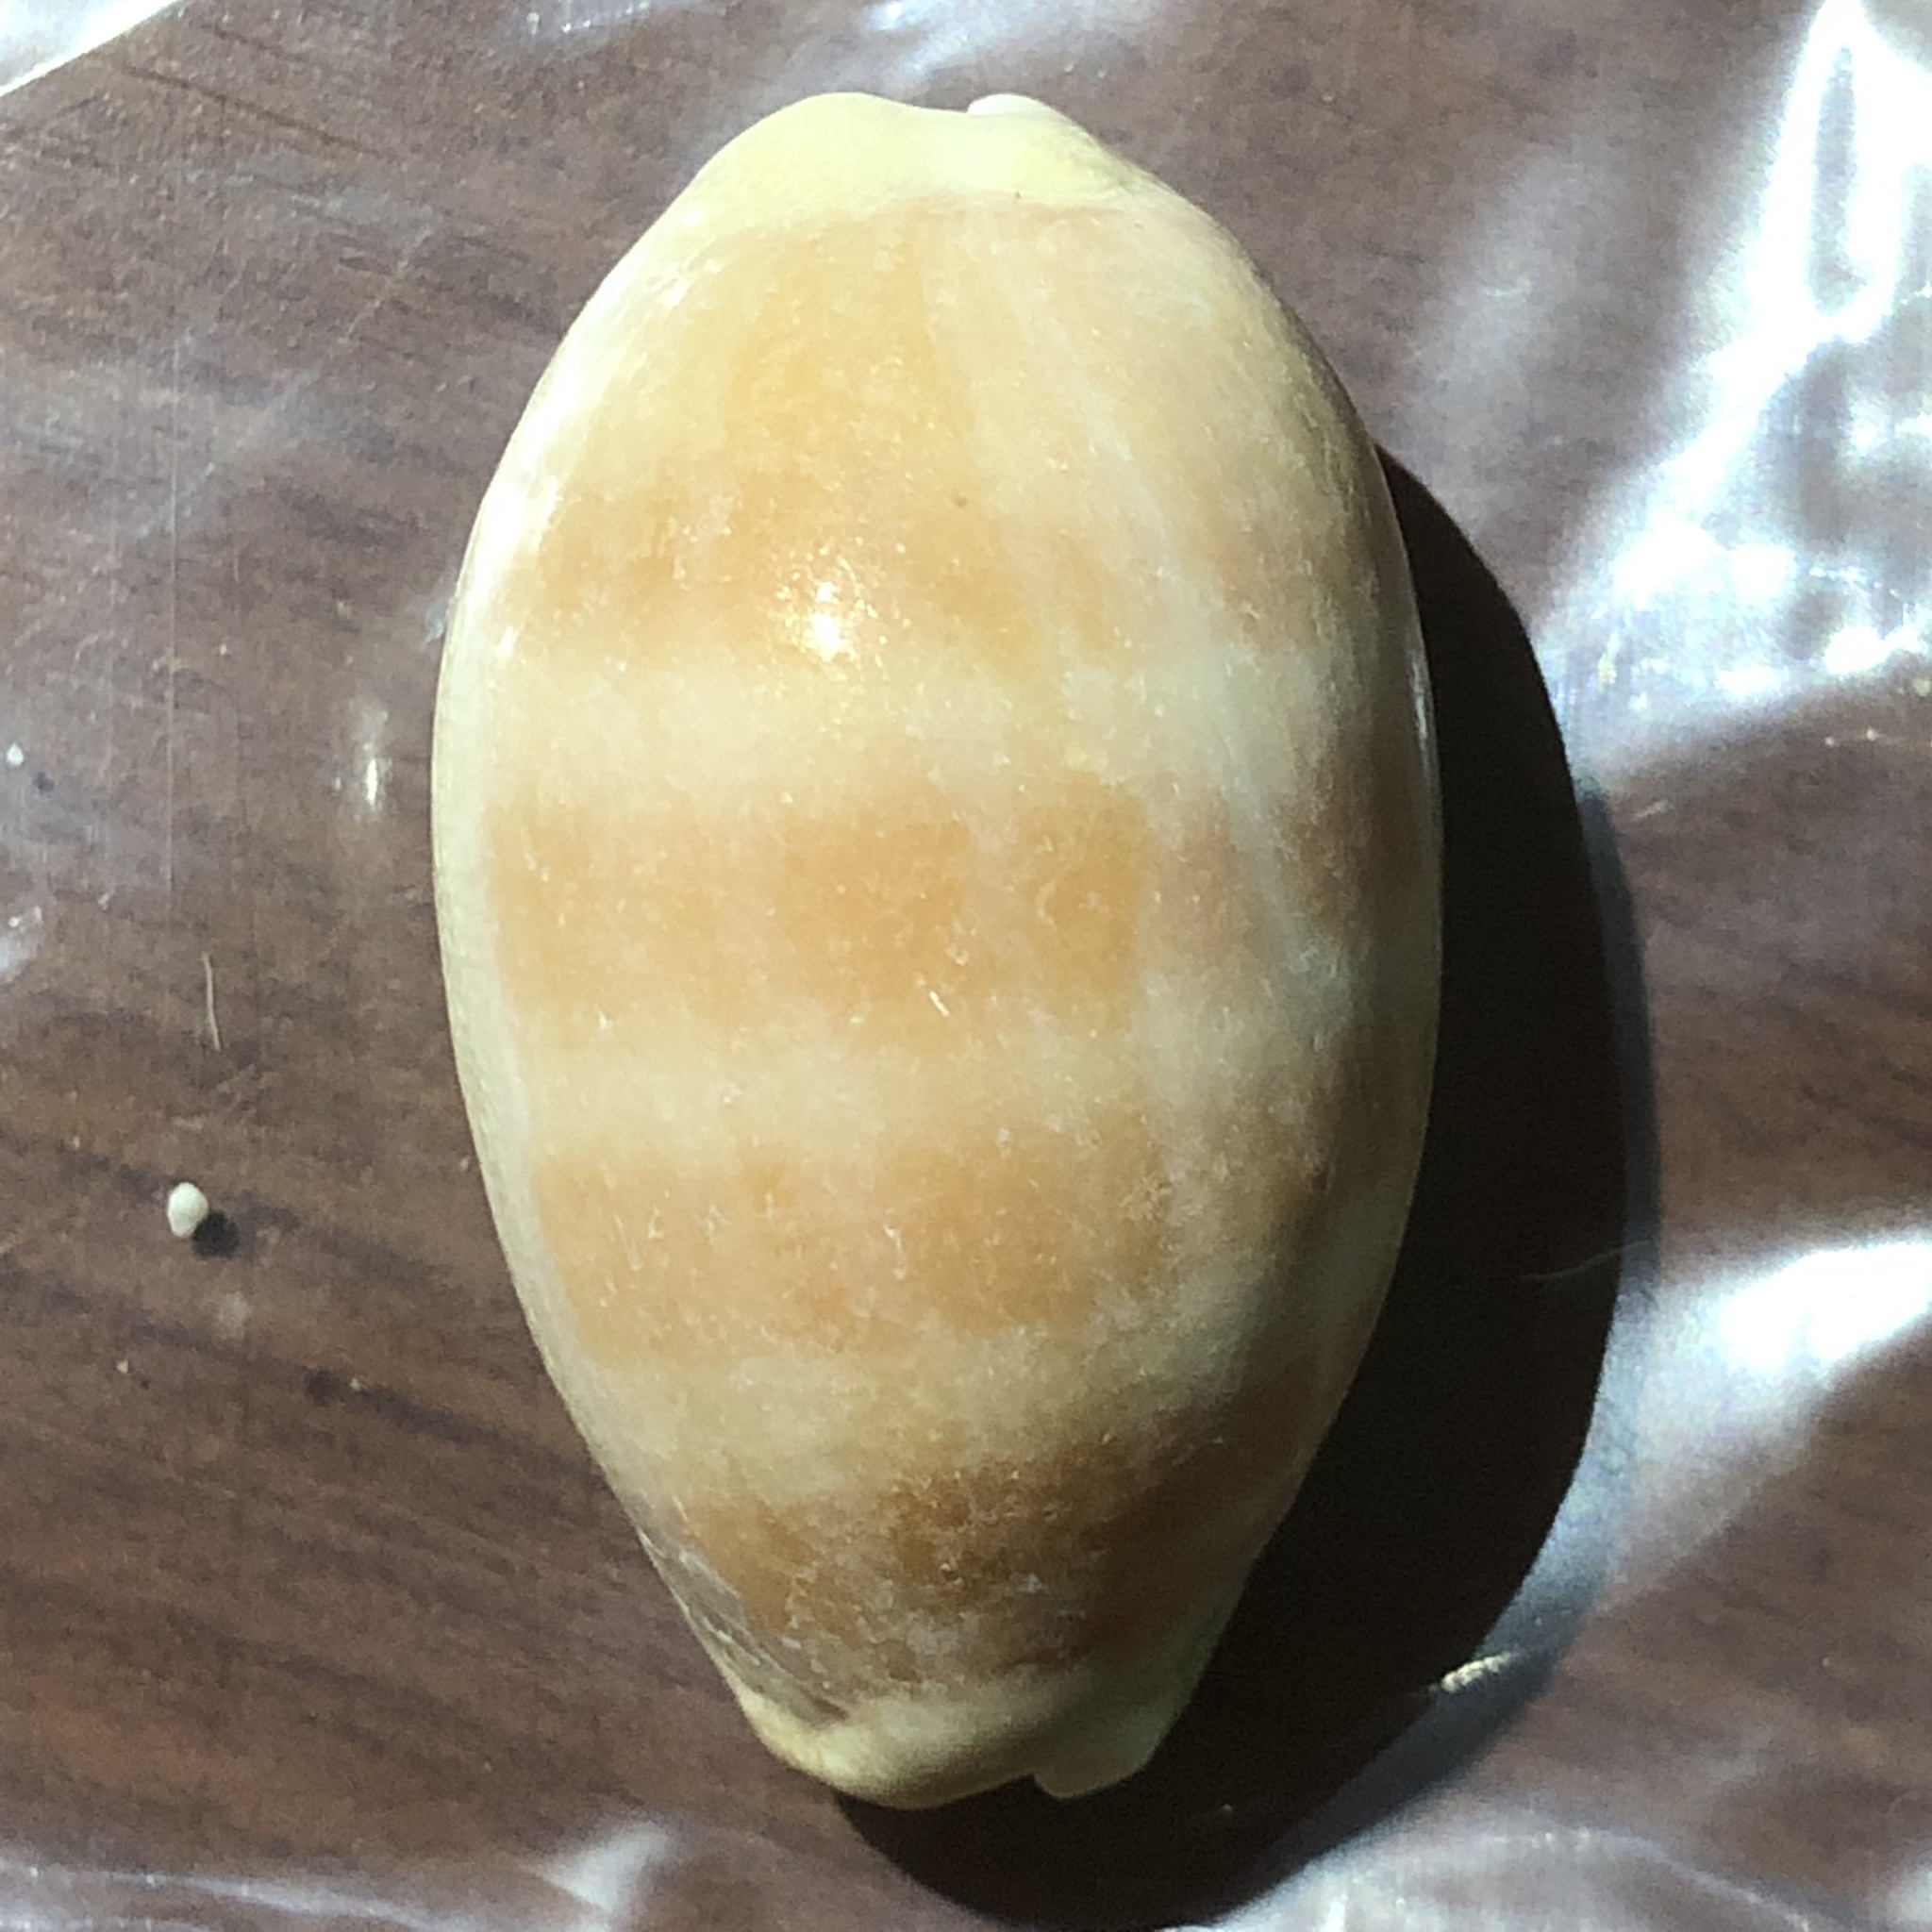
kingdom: Animalia
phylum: Mollusca
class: Gastropoda
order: Littorinimorpha
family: Cypraeidae
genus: Lyncina
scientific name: Lyncina carneola
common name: Purple-mouthed cowry
